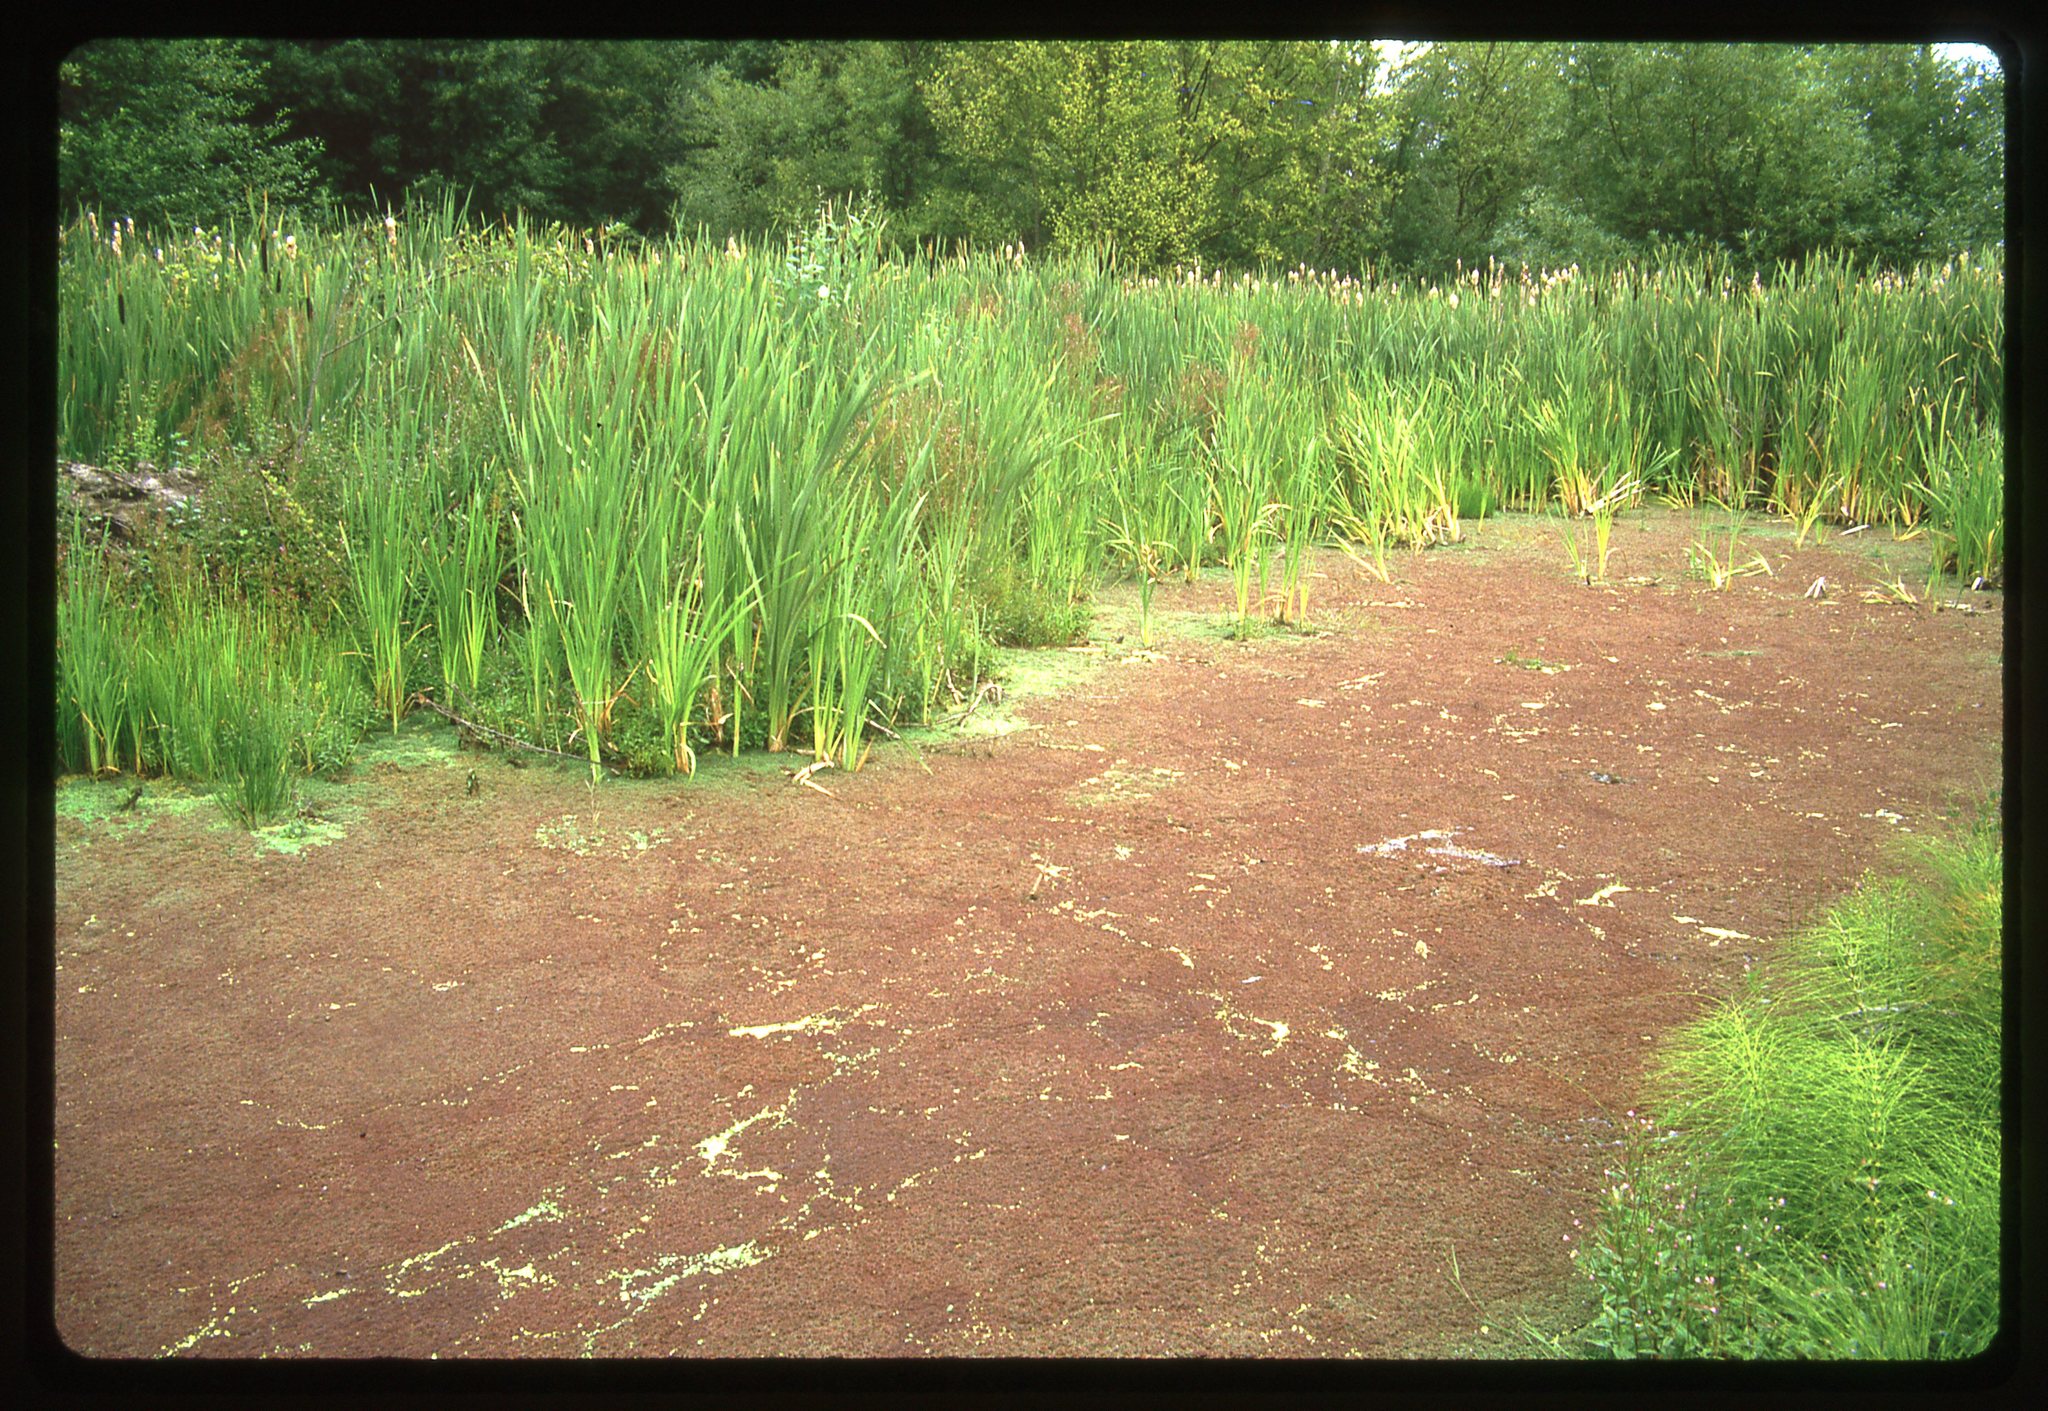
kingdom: Plantae
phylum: Tracheophyta
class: Polypodiopsida
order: Salviniales
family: Salviniaceae
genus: Azolla
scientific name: Azolla filiculoides
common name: Water fern
